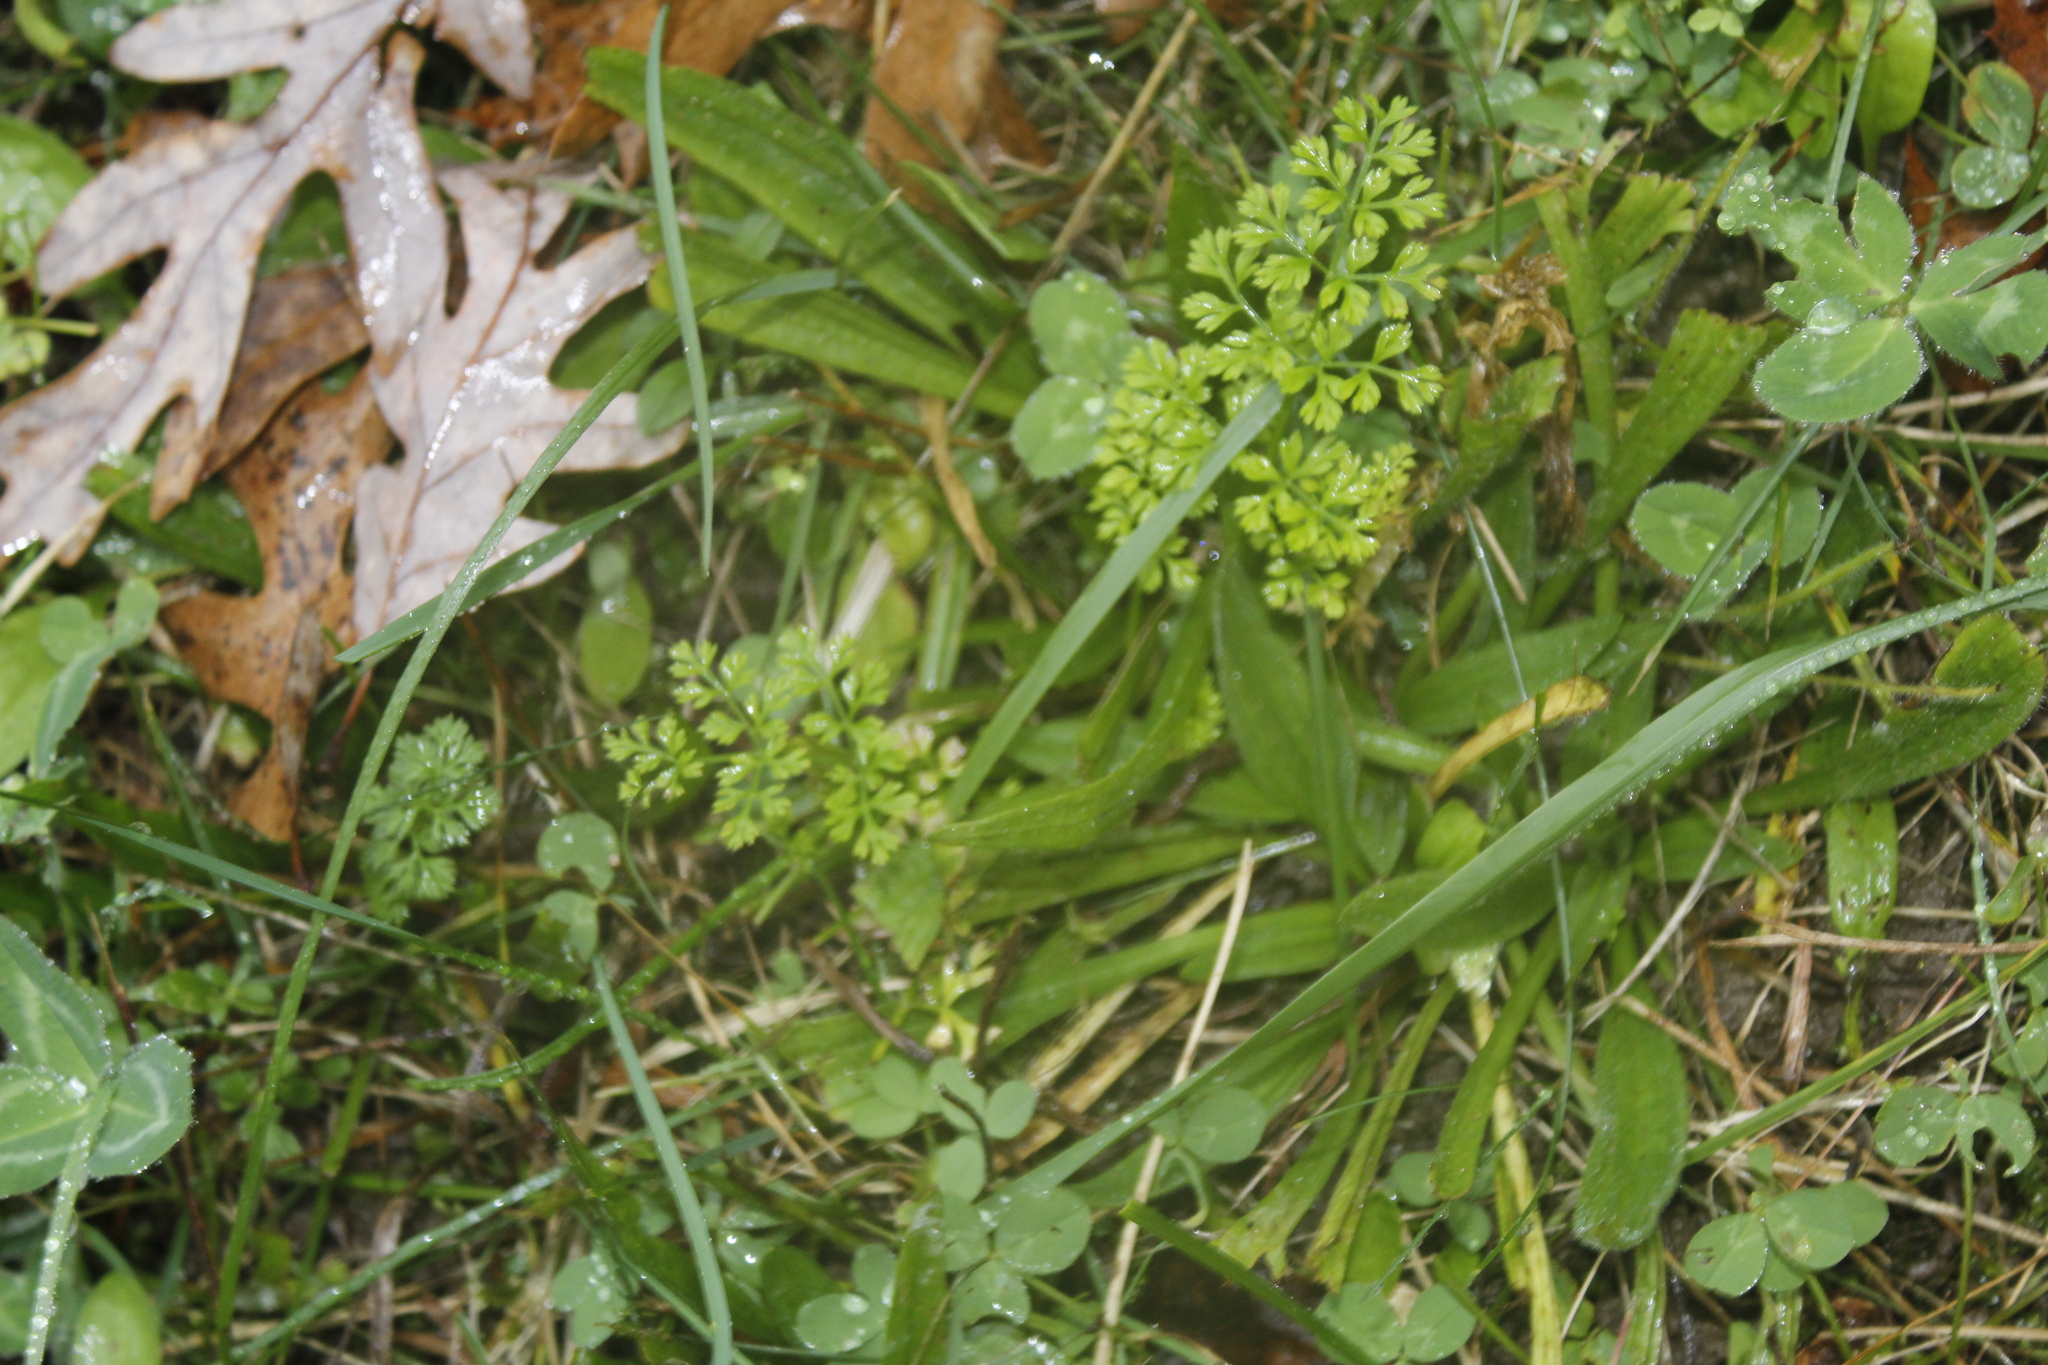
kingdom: Plantae
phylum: Tracheophyta
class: Magnoliopsida
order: Apiales
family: Apiaceae
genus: Daucus
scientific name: Daucus carota
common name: Wild carrot
